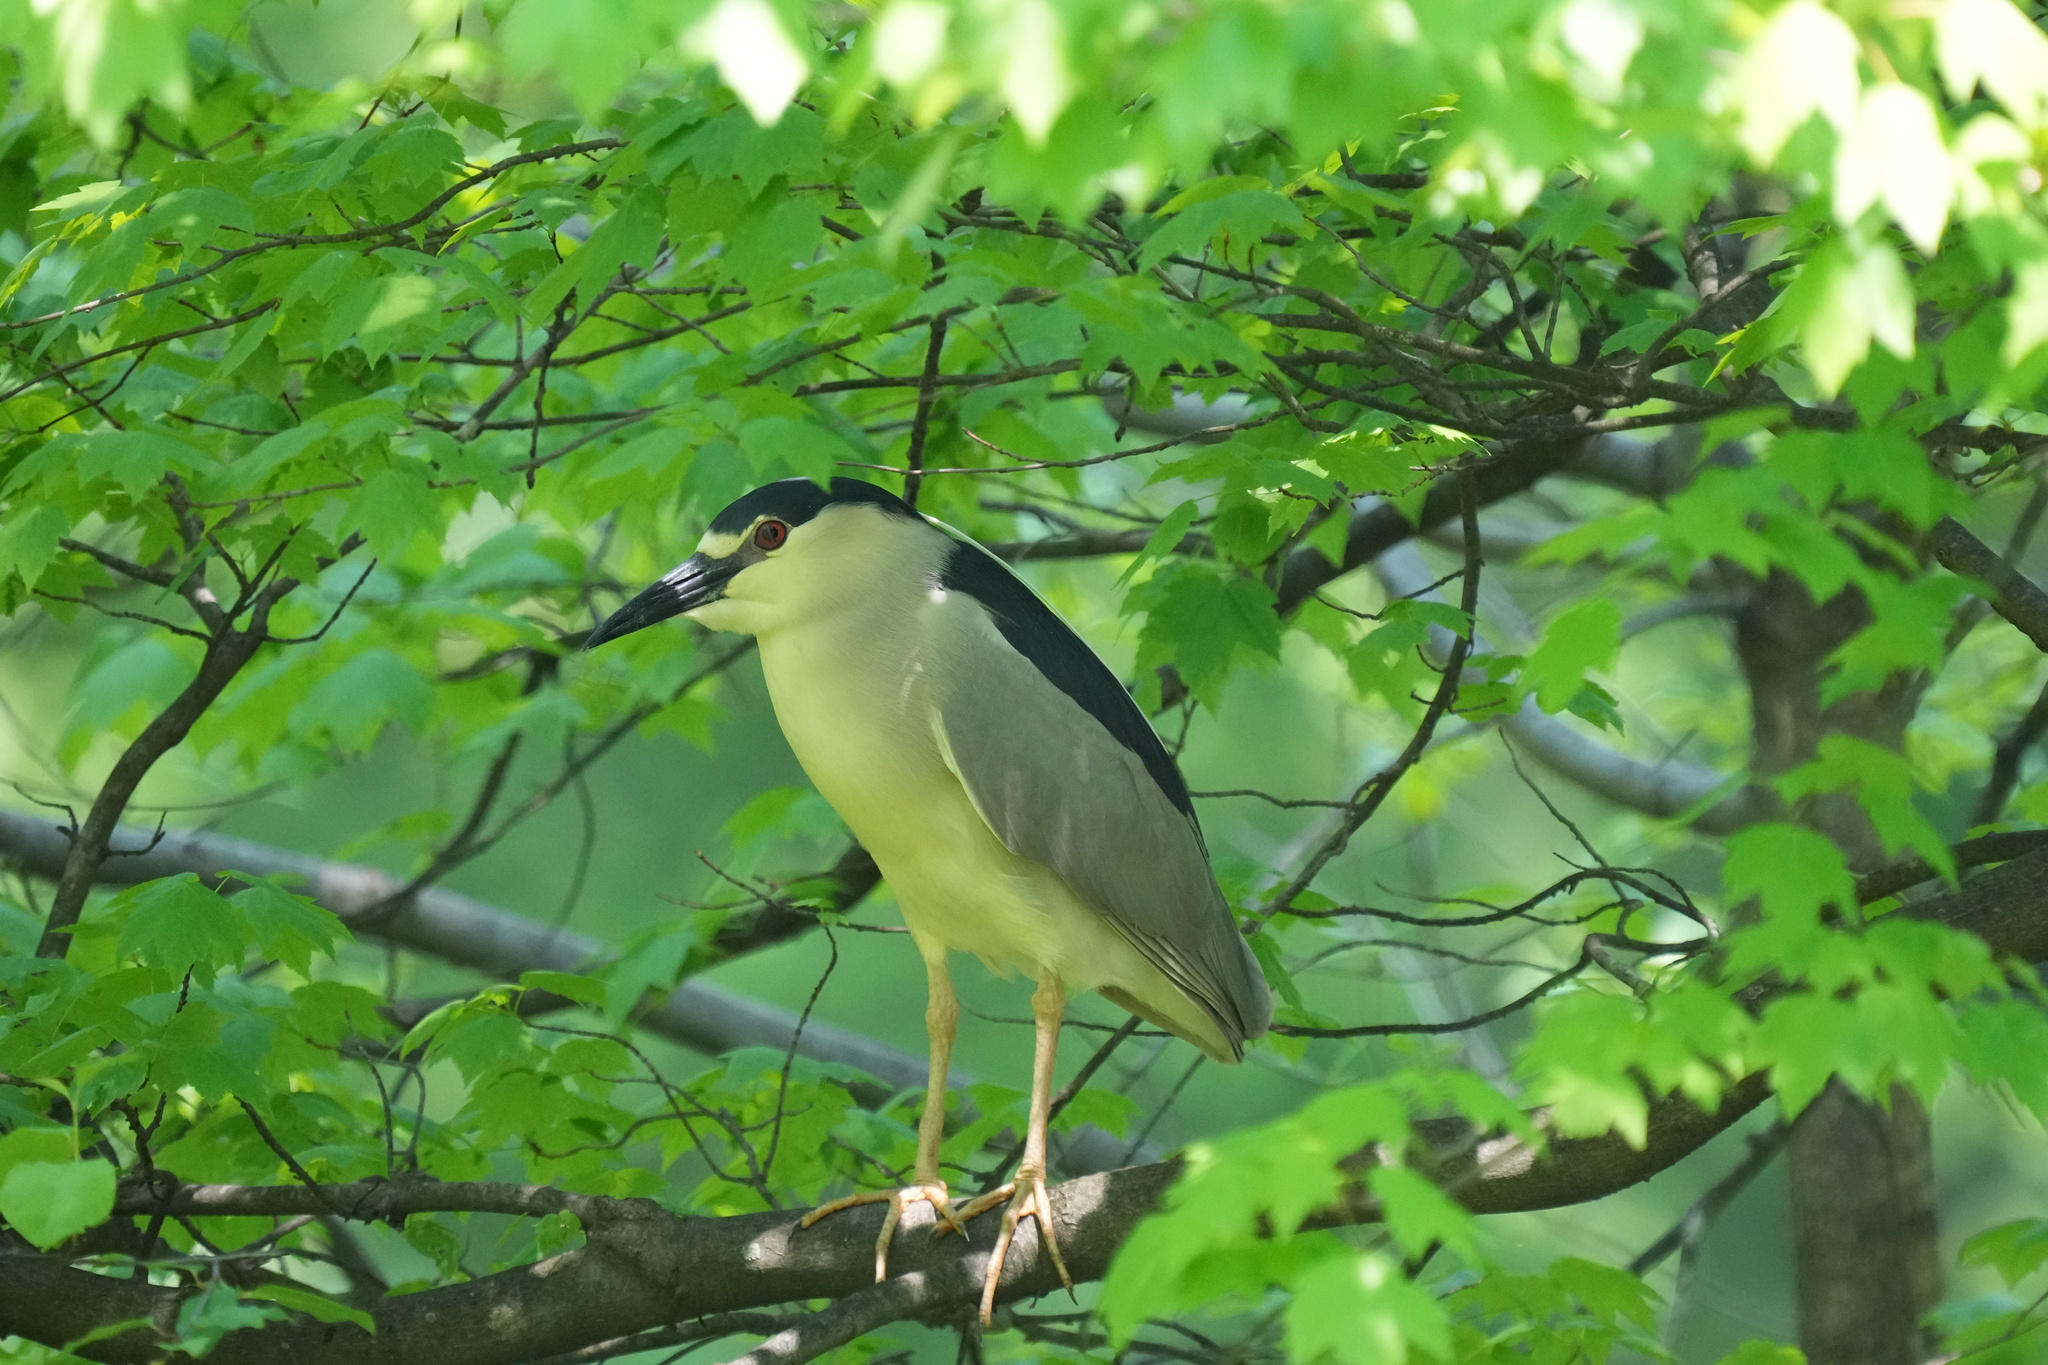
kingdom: Animalia
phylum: Chordata
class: Aves
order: Pelecaniformes
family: Ardeidae
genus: Nycticorax
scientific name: Nycticorax nycticorax
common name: Black-crowned night heron
